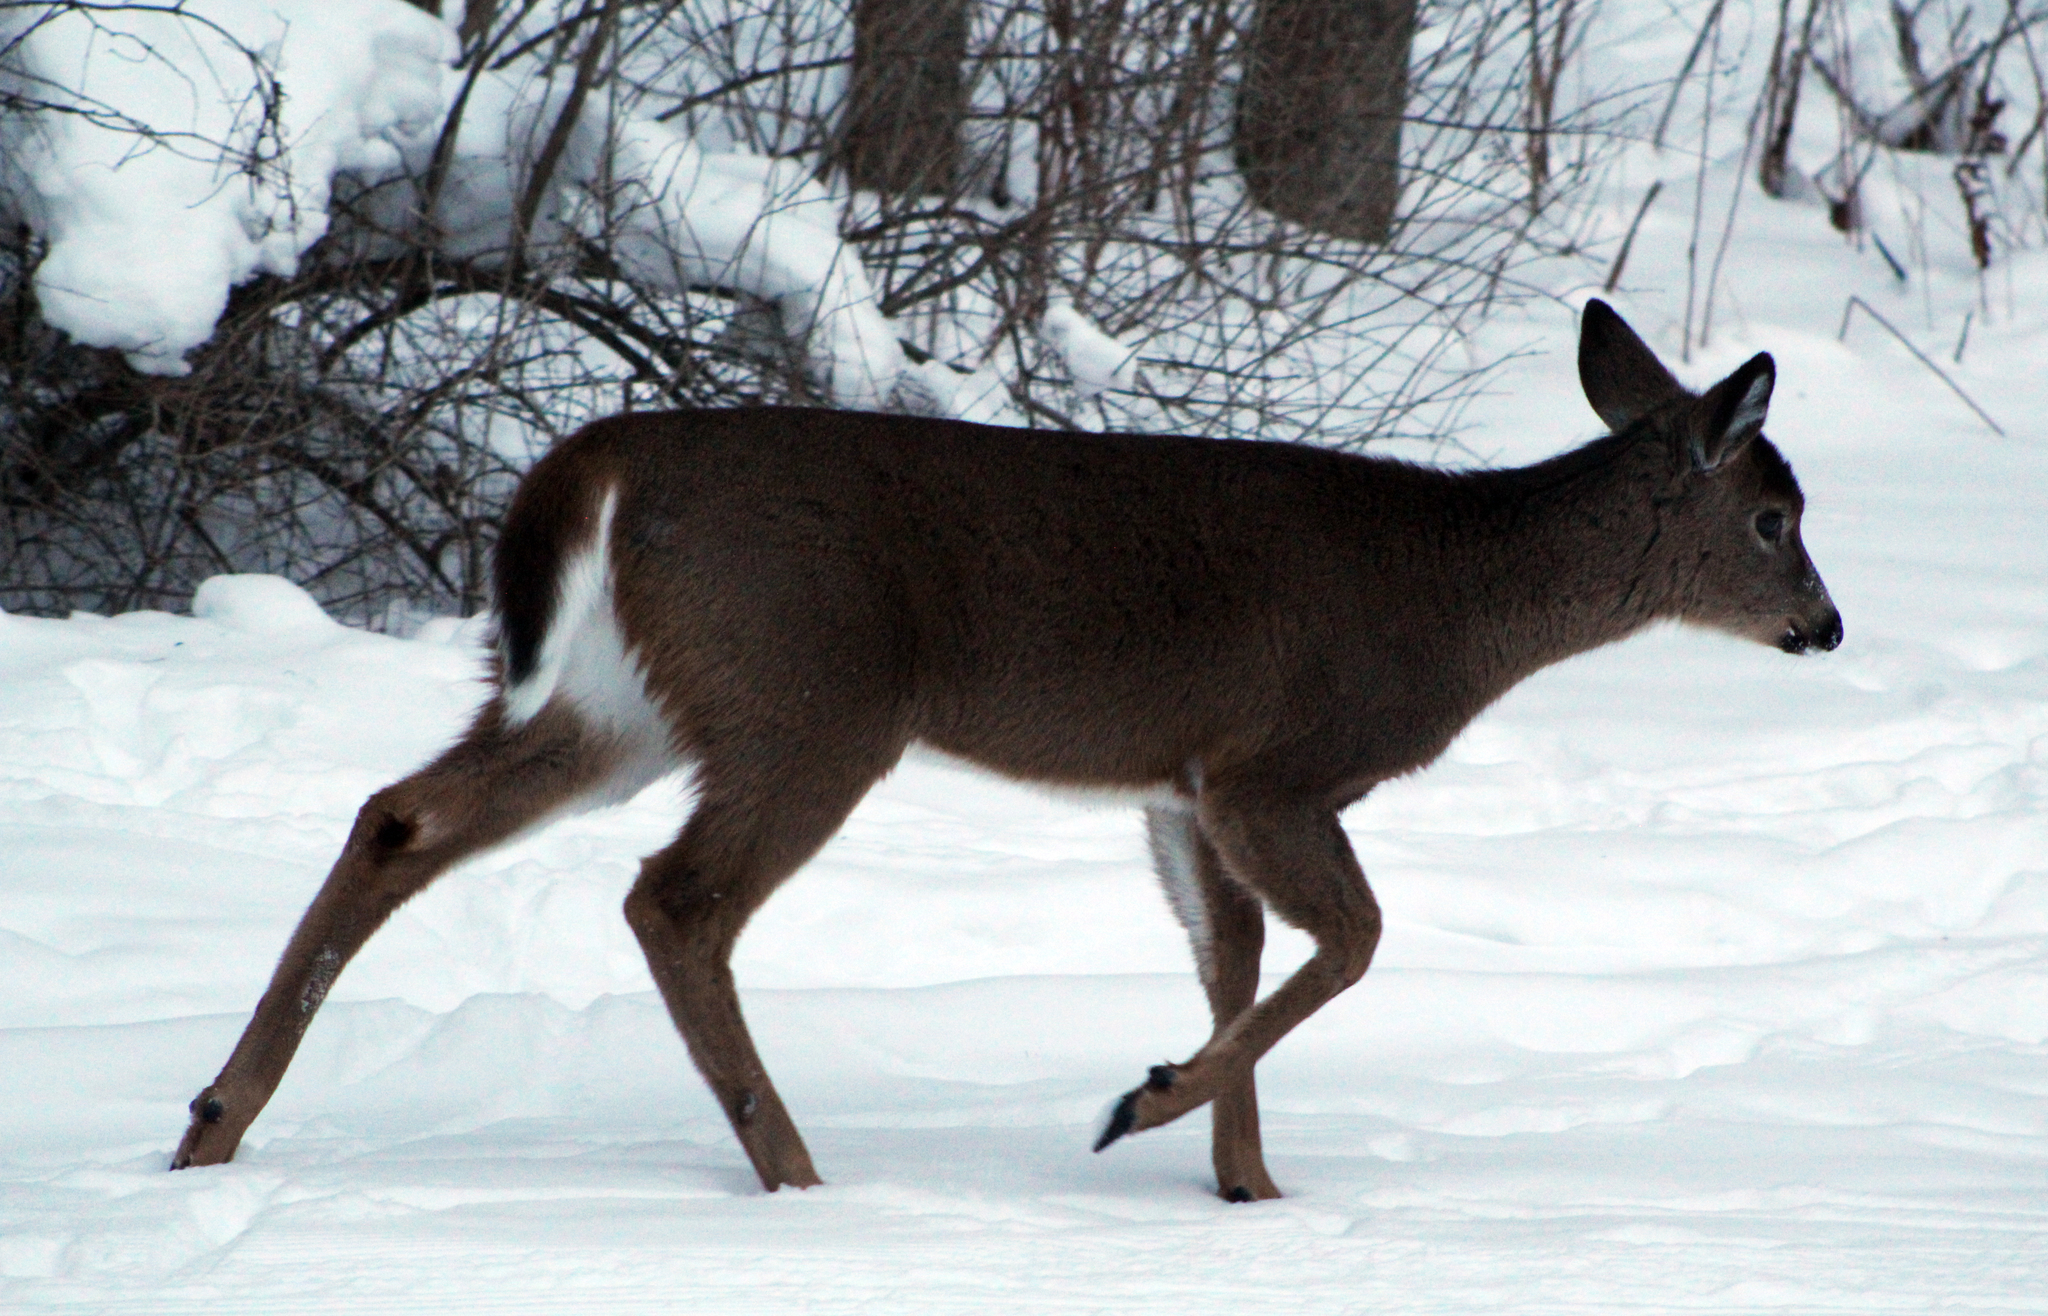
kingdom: Animalia
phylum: Chordata
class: Mammalia
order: Artiodactyla
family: Cervidae
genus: Odocoileus
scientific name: Odocoileus virginianus
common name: White-tailed deer
